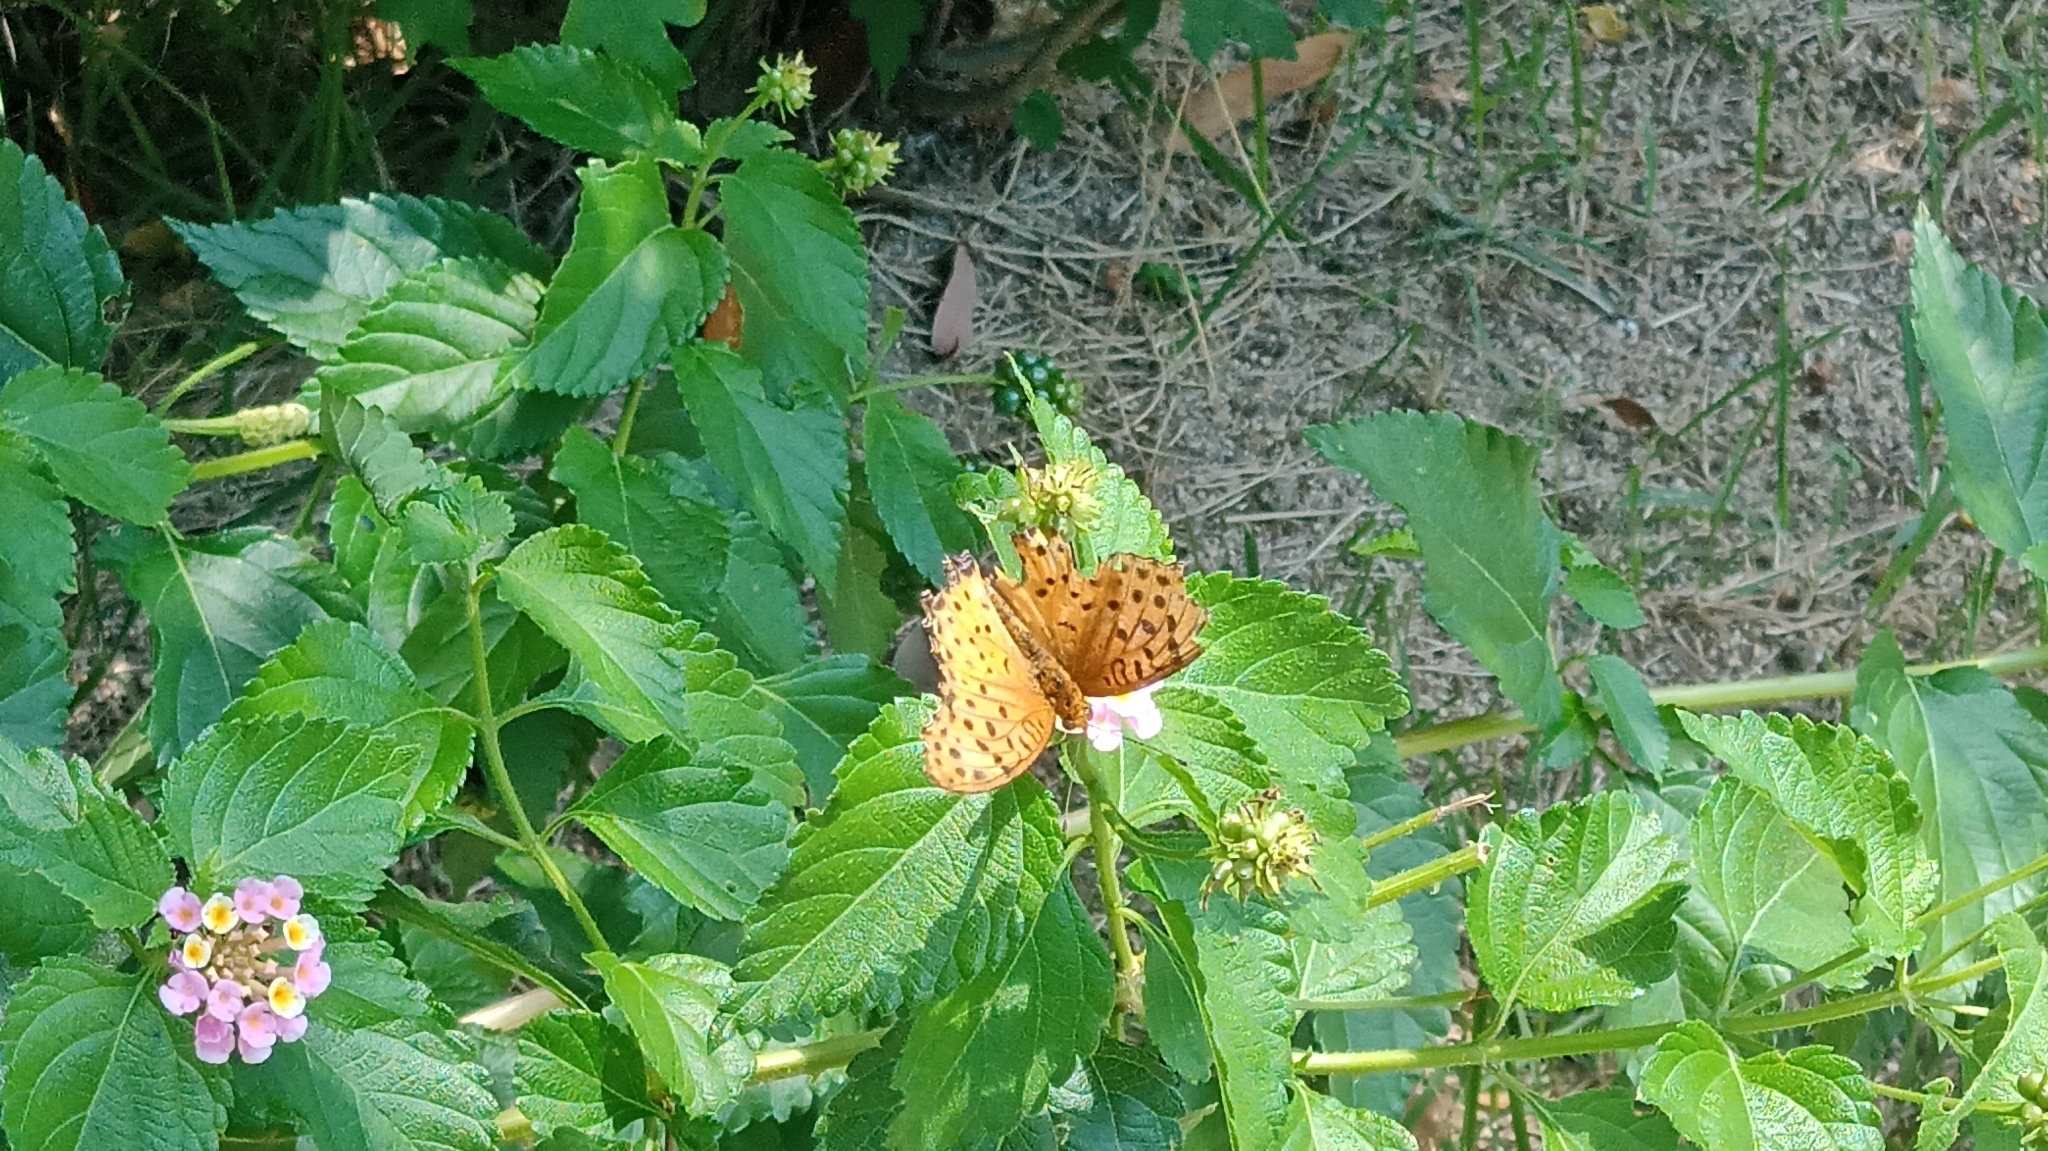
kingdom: Animalia
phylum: Arthropoda
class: Insecta
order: Lepidoptera
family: Nymphalidae
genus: Argynnis
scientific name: Argynnis hyperbius
